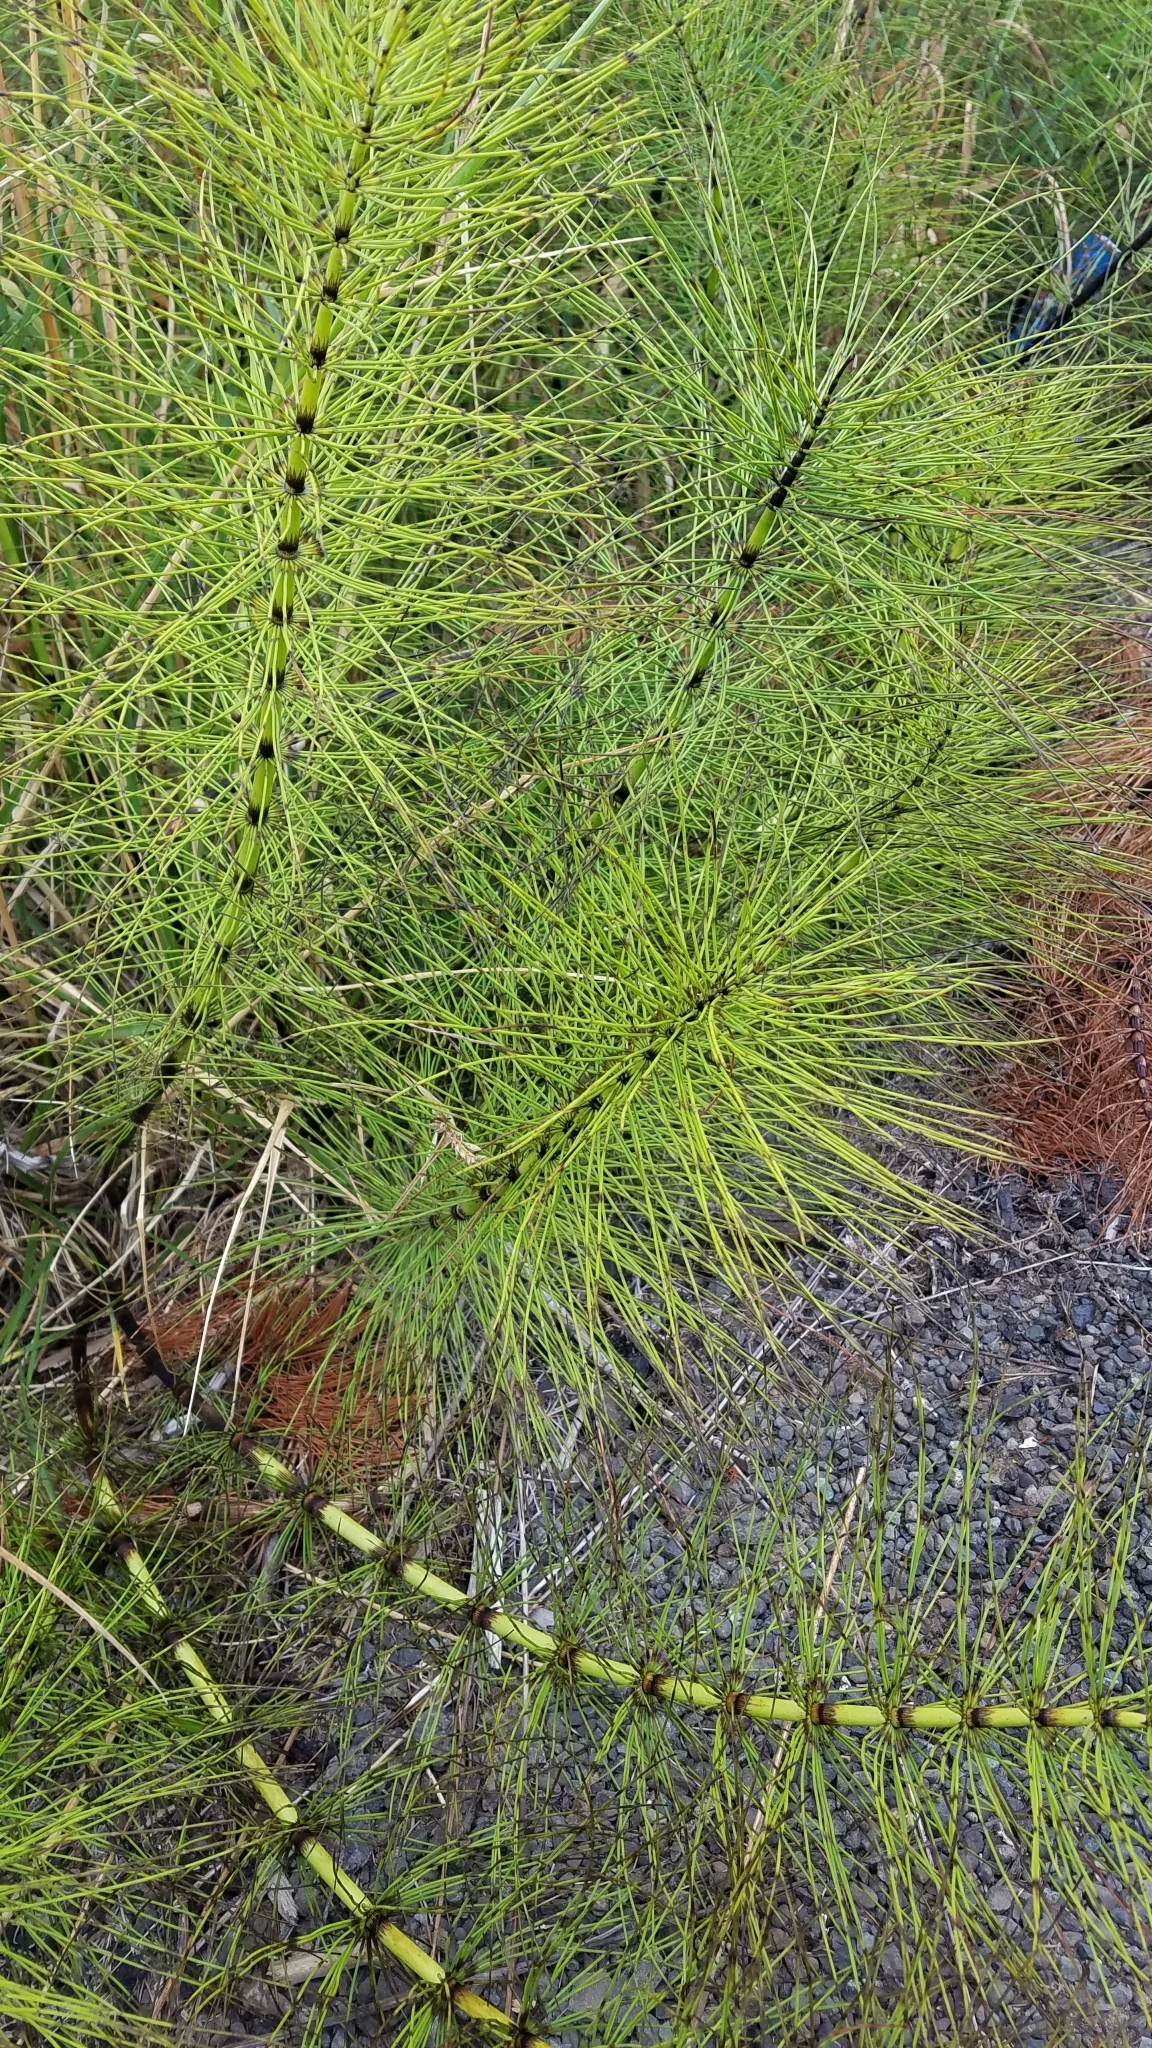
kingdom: Plantae
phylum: Tracheophyta
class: Polypodiopsida
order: Equisetales
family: Equisetaceae
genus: Equisetum
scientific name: Equisetum braunii
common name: Braun's horsetail
